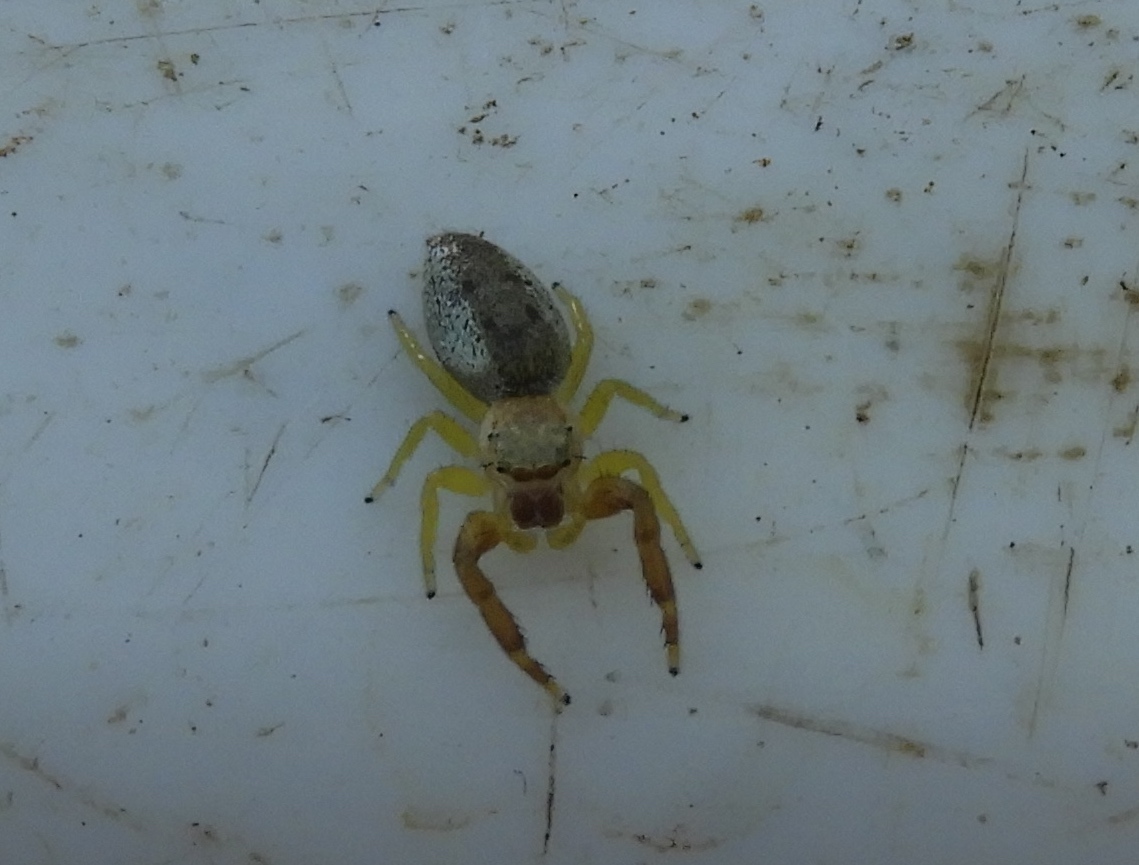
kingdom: Animalia
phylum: Arthropoda
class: Arachnida
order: Araneae
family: Salticidae
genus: Hentzia
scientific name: Hentzia
